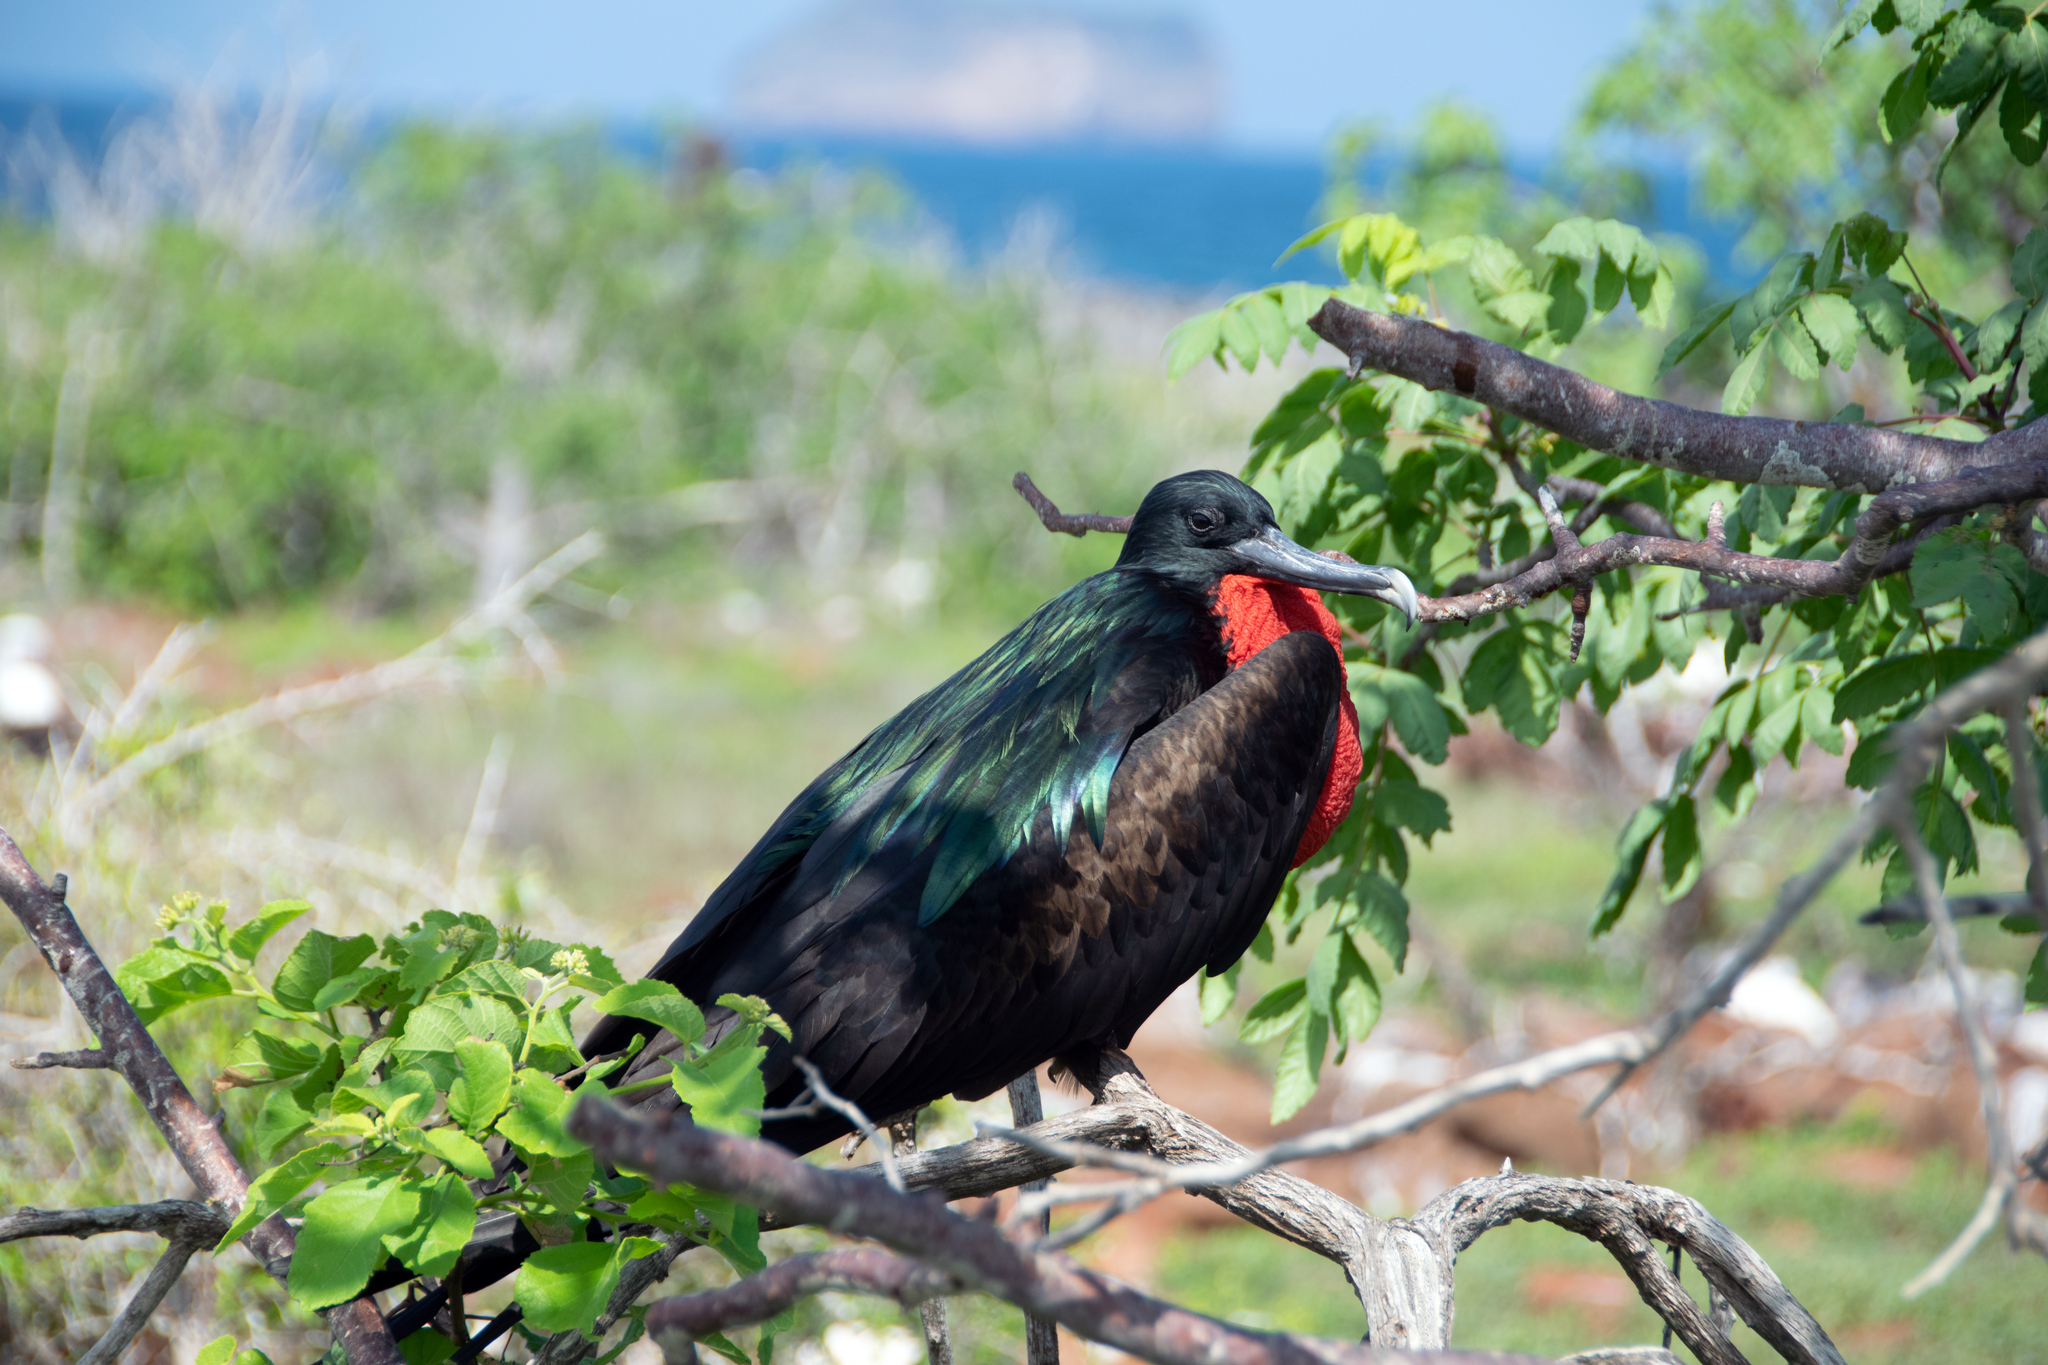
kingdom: Animalia
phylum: Chordata
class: Aves
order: Suliformes
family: Fregatidae
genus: Fregata
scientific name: Fregata minor
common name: Great frigatebird
